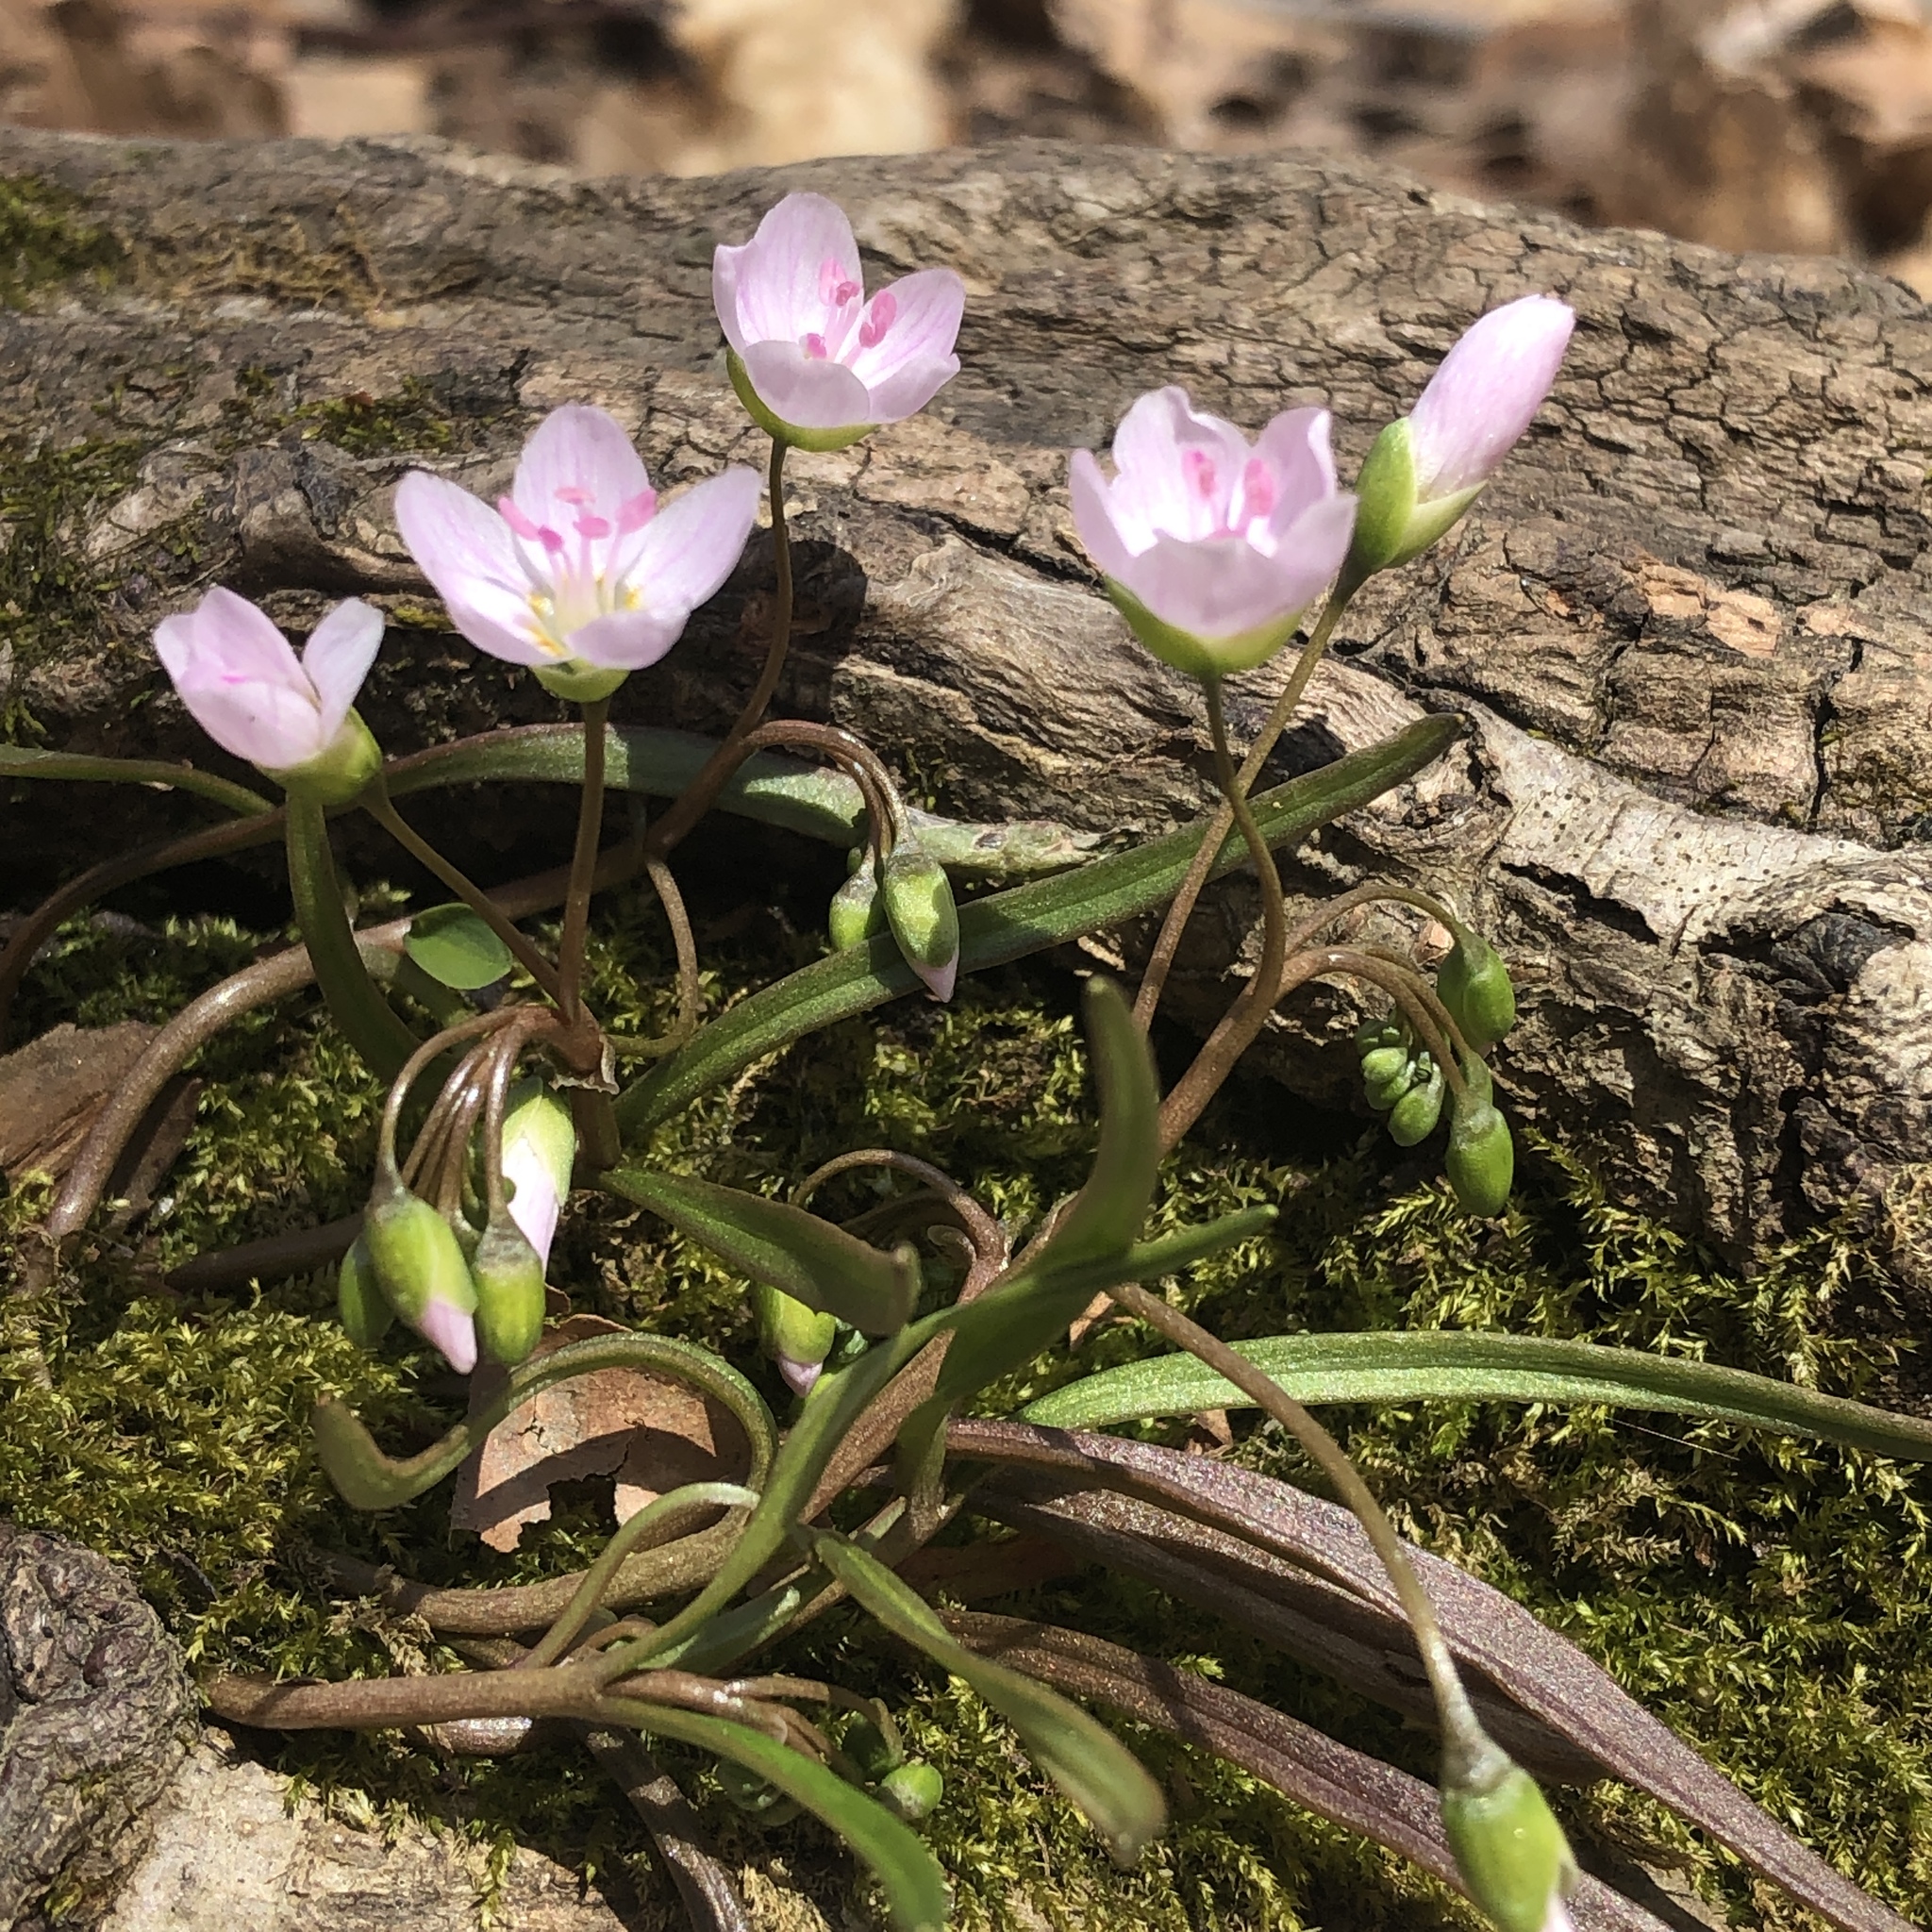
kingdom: Plantae
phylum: Tracheophyta
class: Magnoliopsida
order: Caryophyllales
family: Montiaceae
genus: Claytonia
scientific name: Claytonia virginica
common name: Virginia springbeauty
